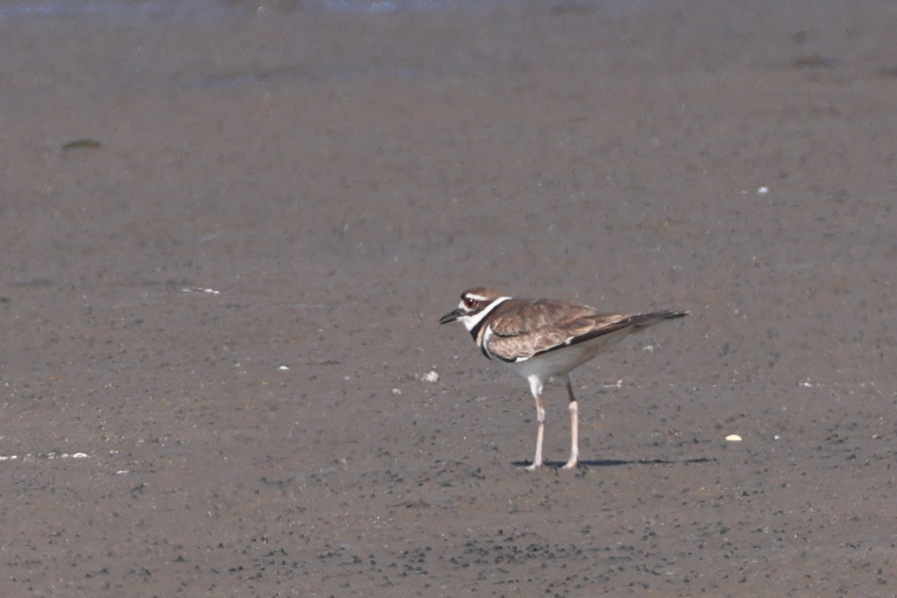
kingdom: Animalia
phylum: Chordata
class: Aves
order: Charadriiformes
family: Charadriidae
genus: Charadrius
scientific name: Charadrius vociferus
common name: Killdeer
